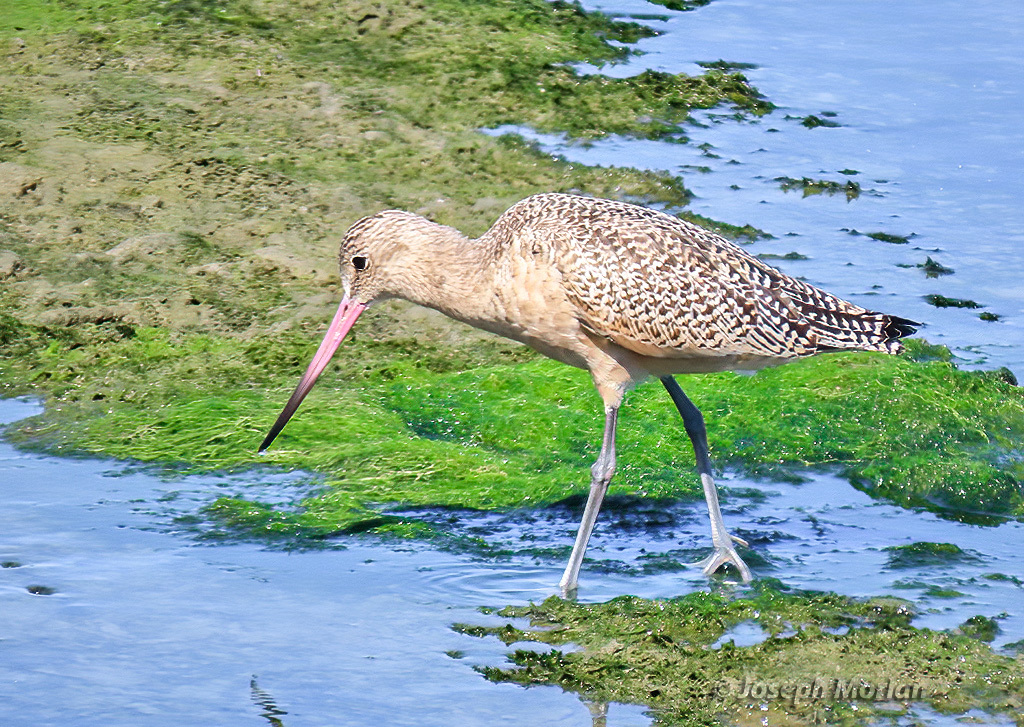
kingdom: Animalia
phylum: Chordata
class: Aves
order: Charadriiformes
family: Scolopacidae
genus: Limosa
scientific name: Limosa fedoa
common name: Marbled godwit
